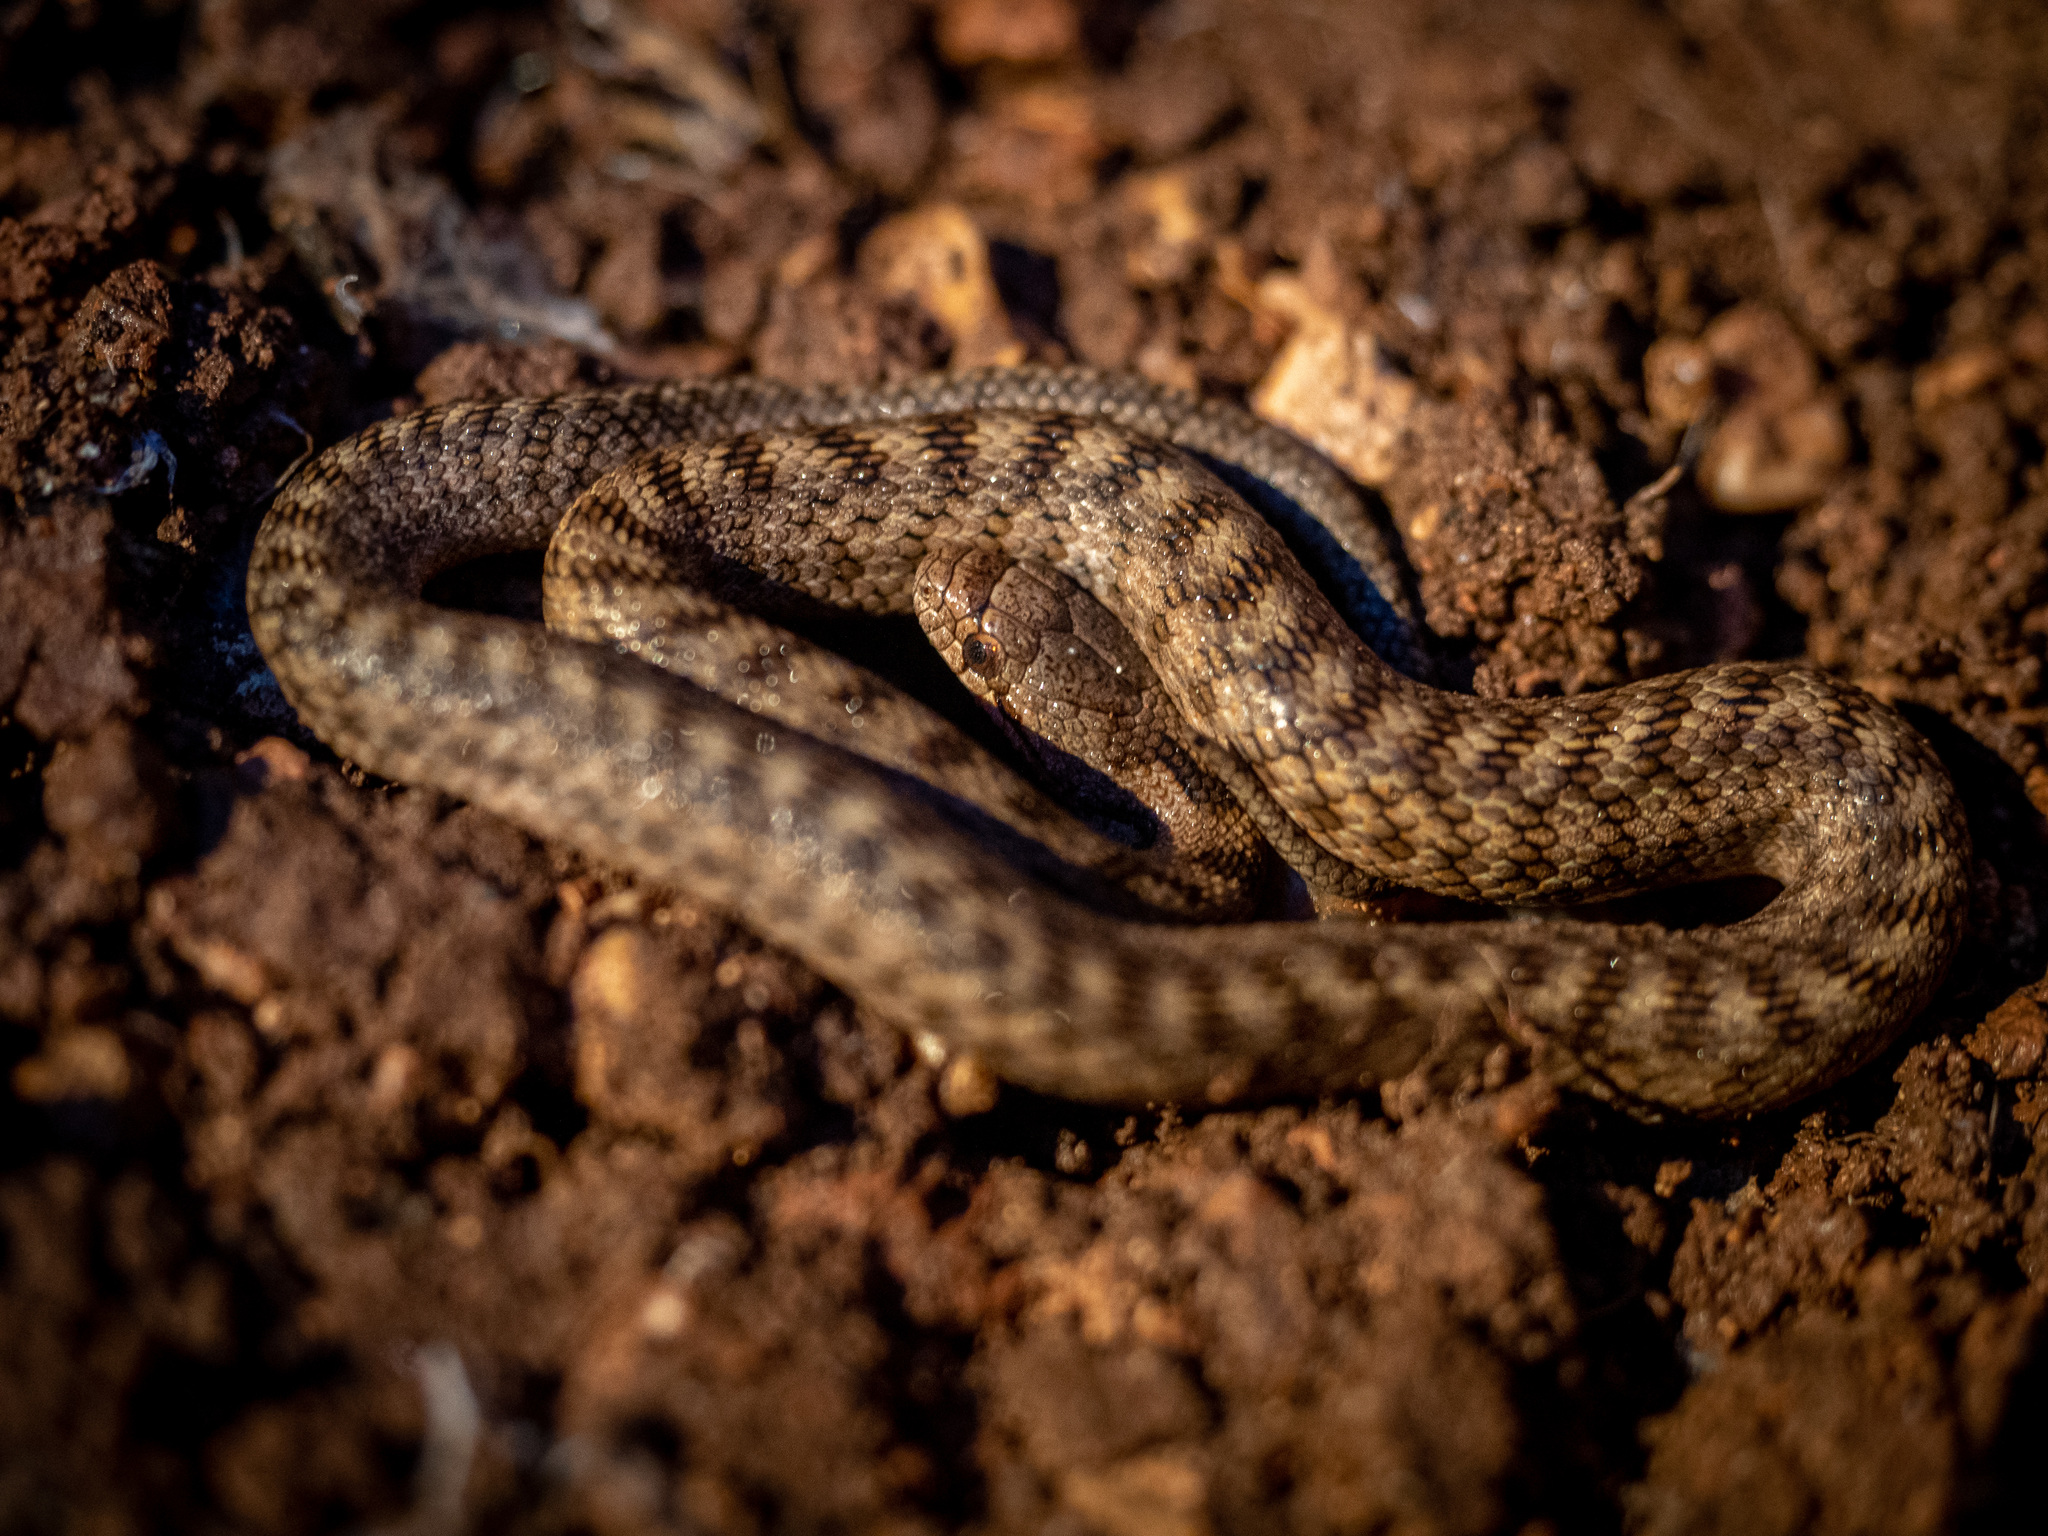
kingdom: Animalia
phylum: Chordata
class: Squamata
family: Colubridae
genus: Coronella
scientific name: Coronella girondica
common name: Southern smooth snake
